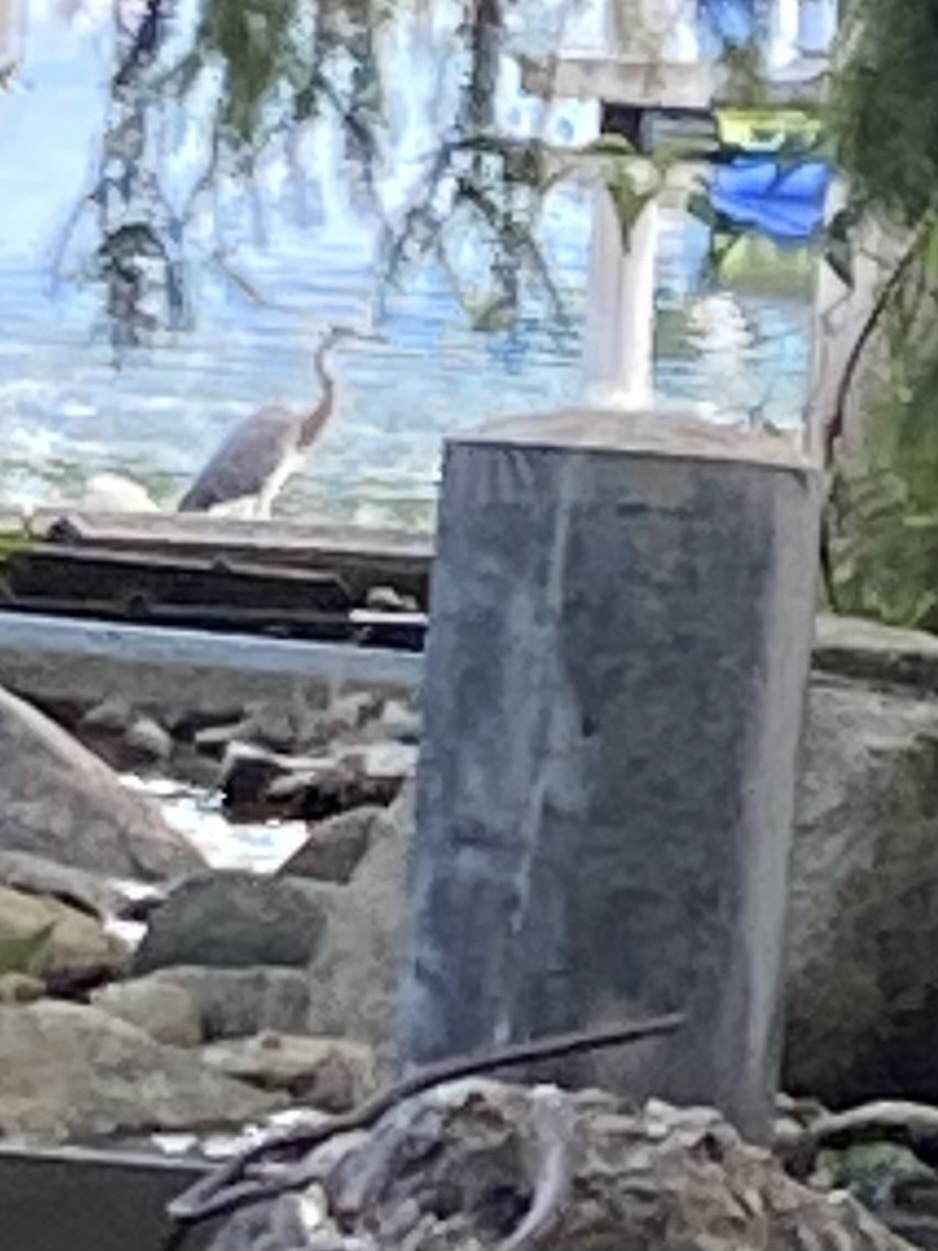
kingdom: Animalia
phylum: Chordata
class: Aves
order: Pelecaniformes
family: Ardeidae
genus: Ardea
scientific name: Ardea herodias
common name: Great blue heron
